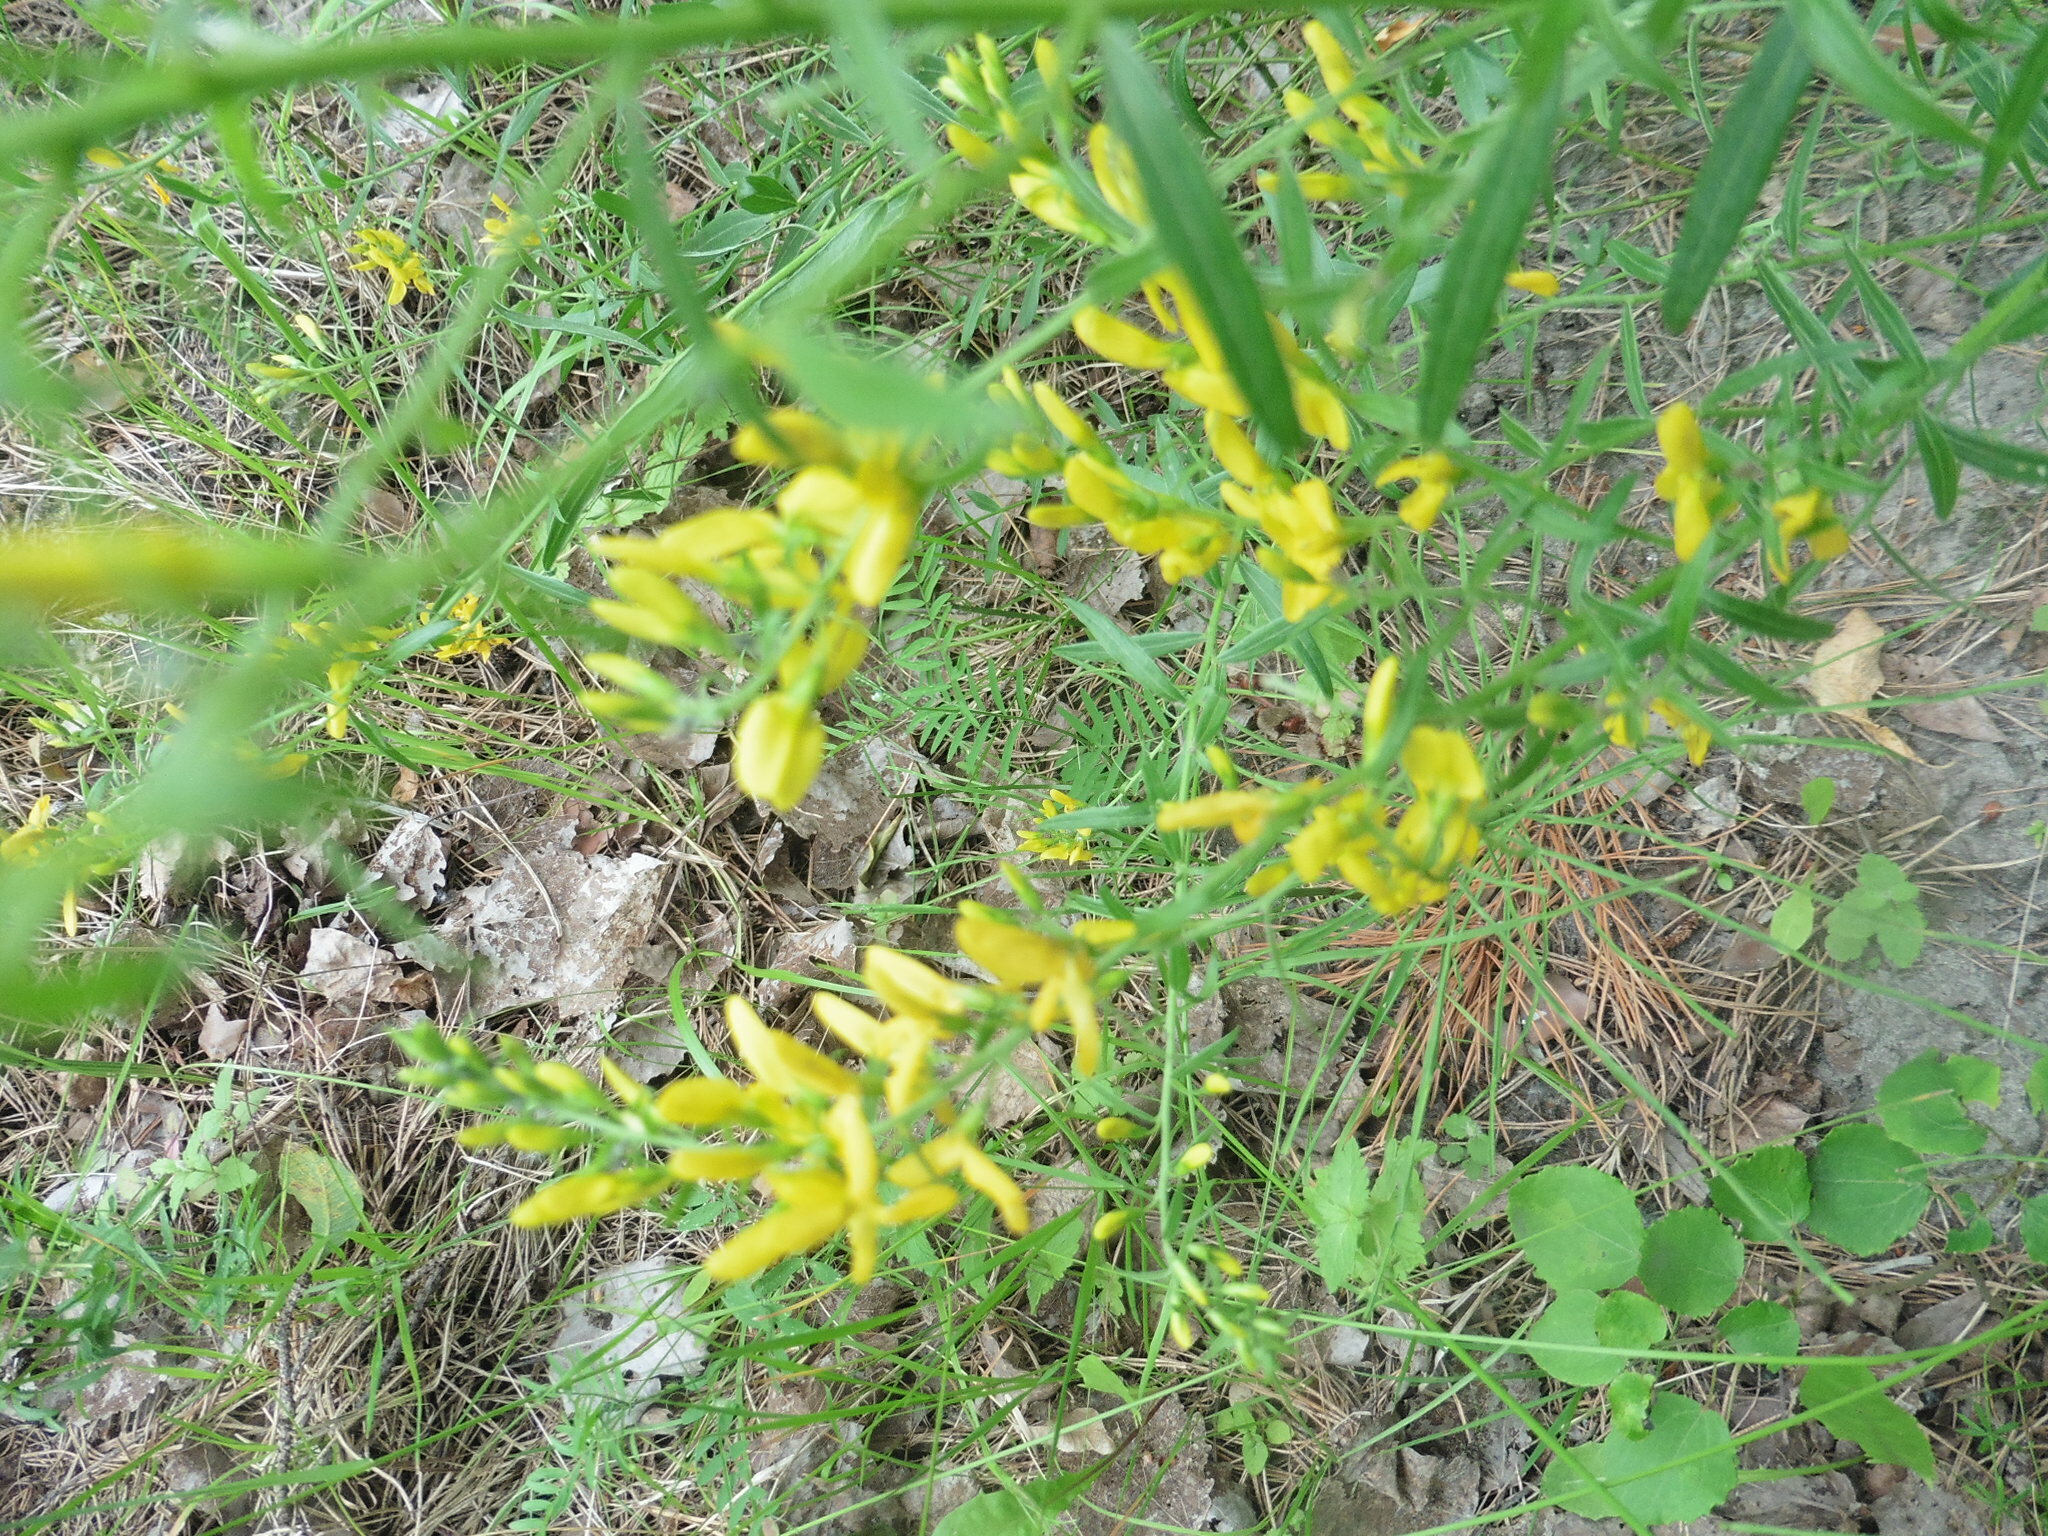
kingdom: Plantae
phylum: Tracheophyta
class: Magnoliopsida
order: Fabales
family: Fabaceae
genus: Genista
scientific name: Genista tinctoria
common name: Dyer's greenweed
